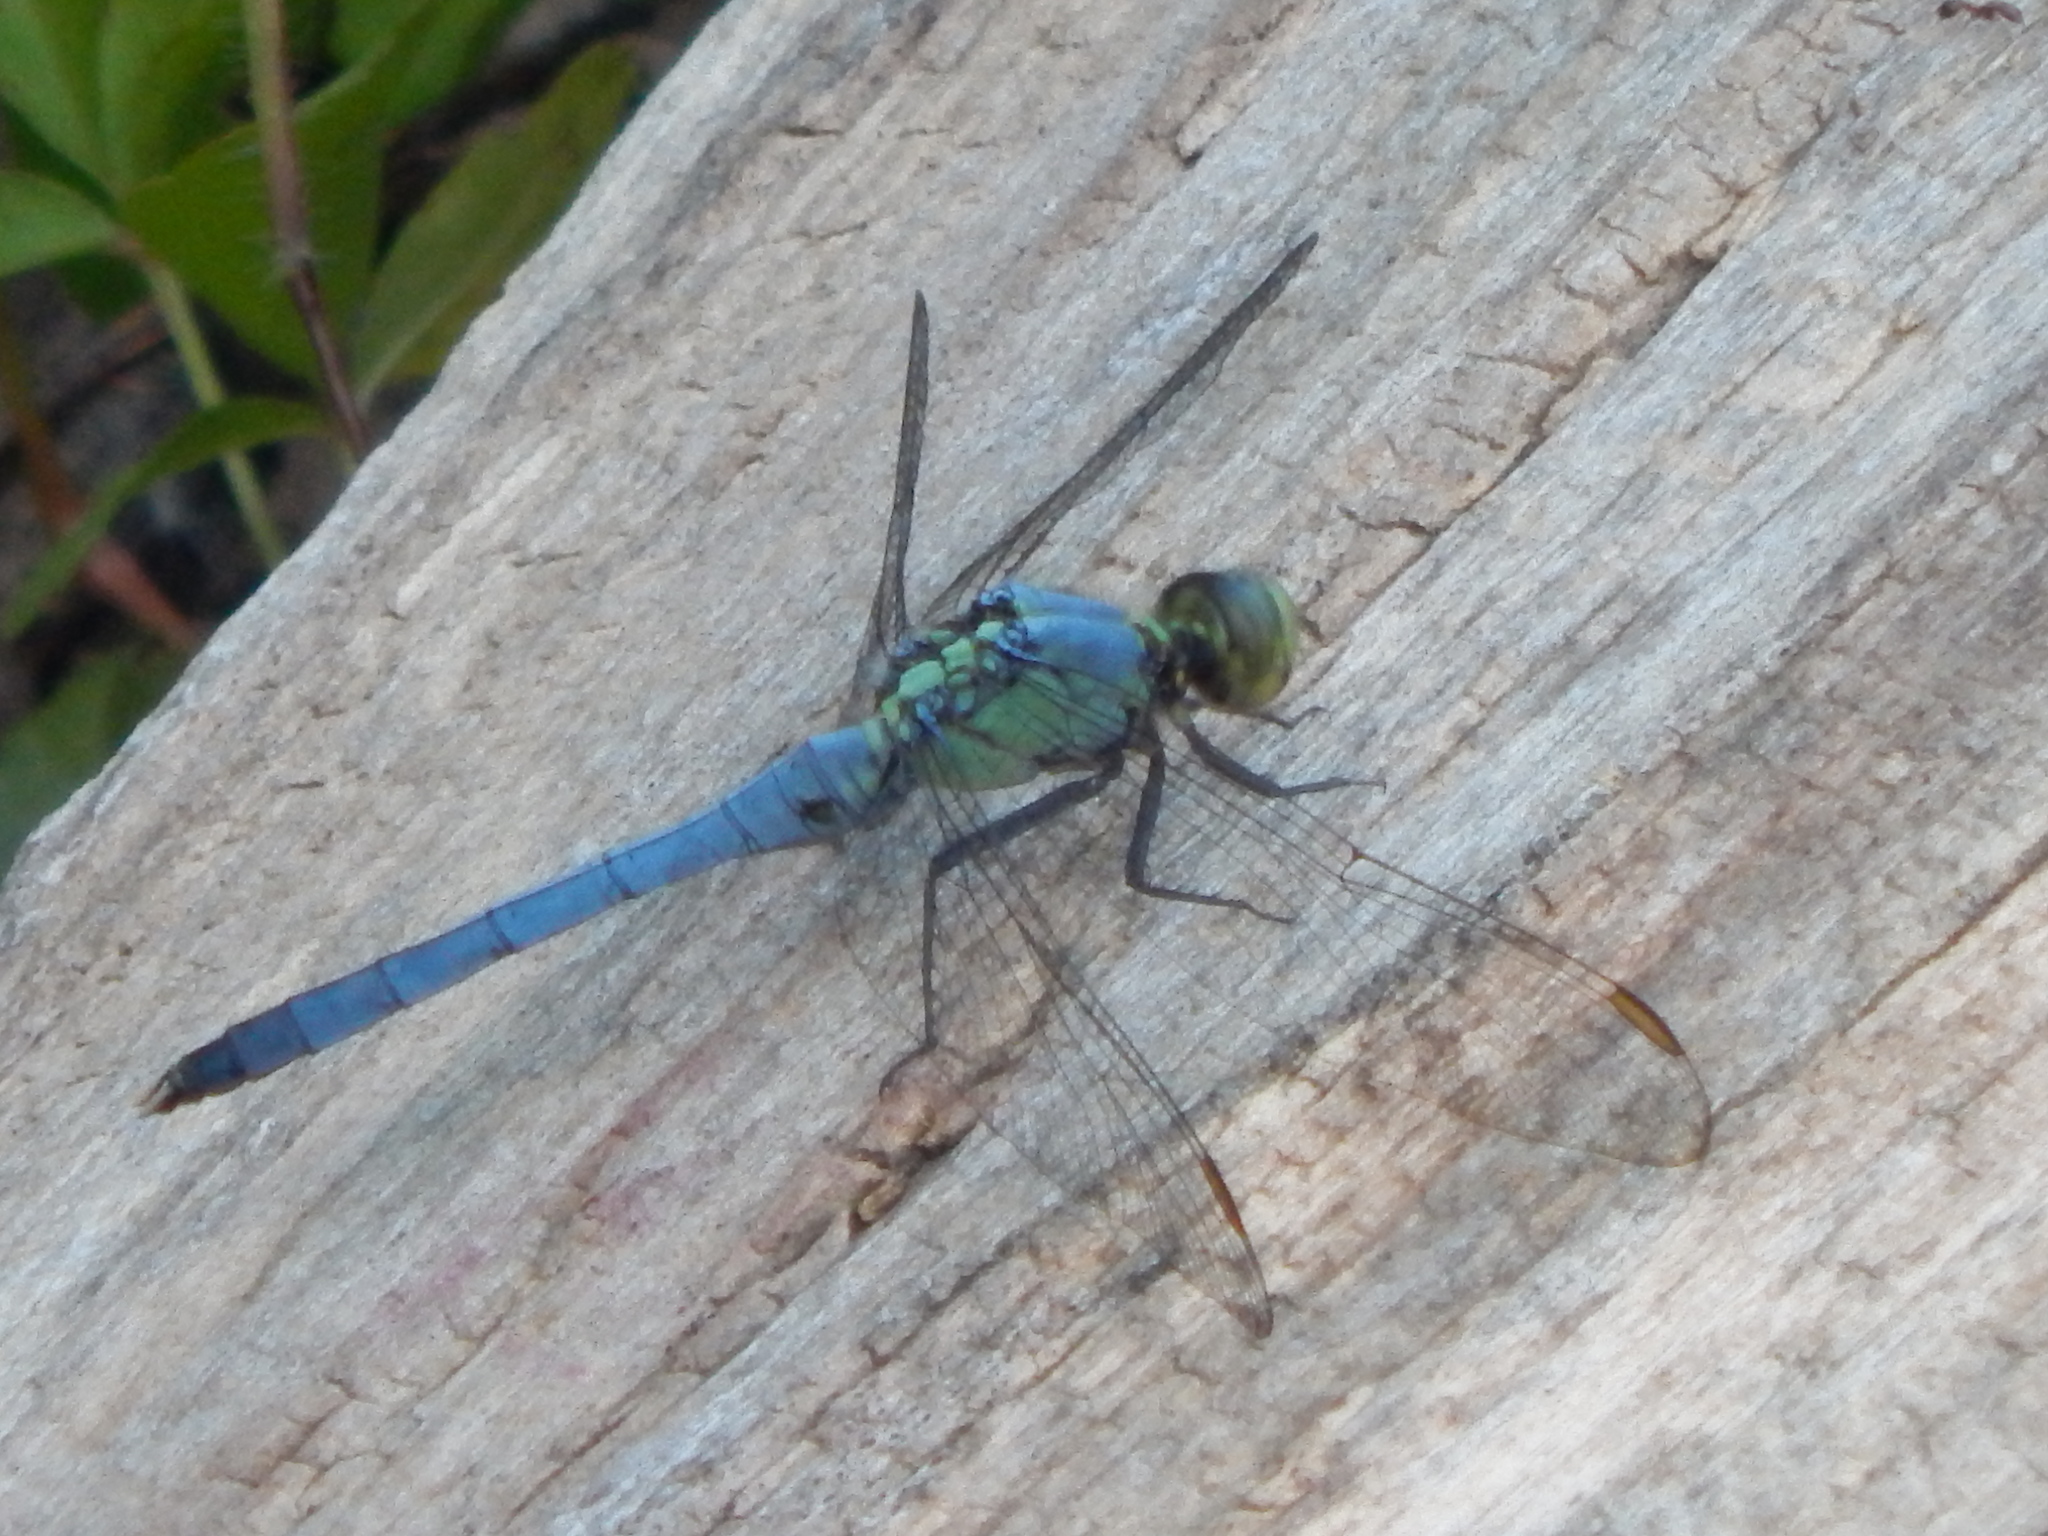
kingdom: Animalia
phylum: Arthropoda
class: Insecta
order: Odonata
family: Libellulidae
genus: Erythemis
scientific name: Erythemis simplicicollis
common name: Eastern pondhawk
